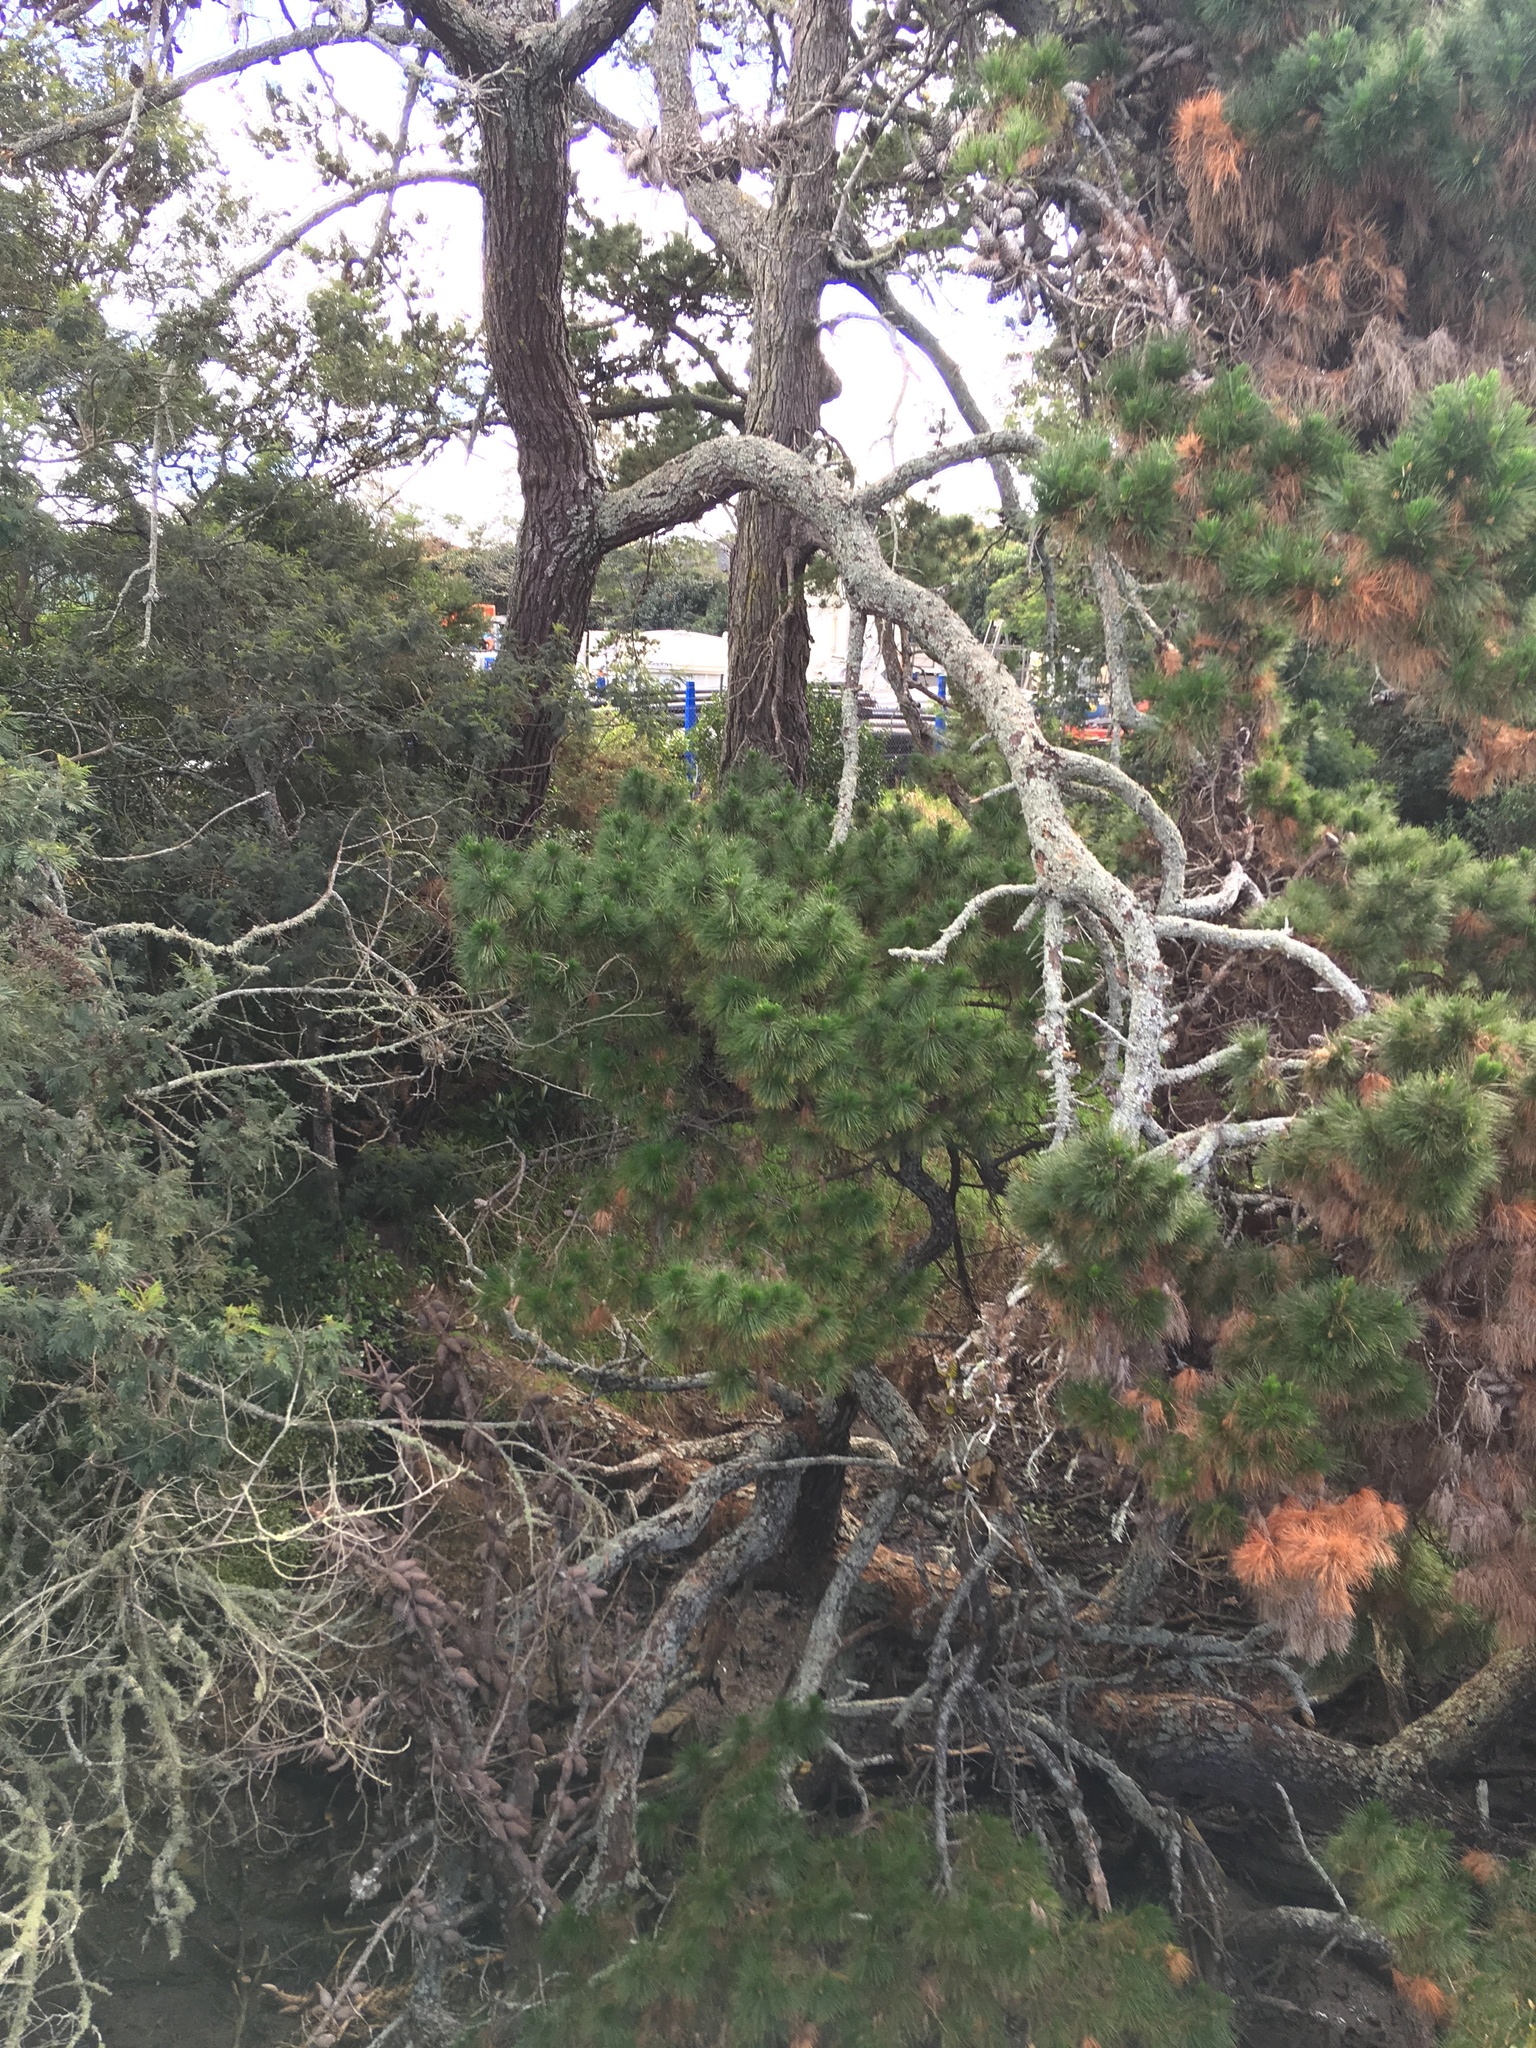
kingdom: Plantae
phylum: Tracheophyta
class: Pinopsida
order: Pinales
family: Pinaceae
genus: Pinus
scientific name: Pinus radiata
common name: Monterey pine
